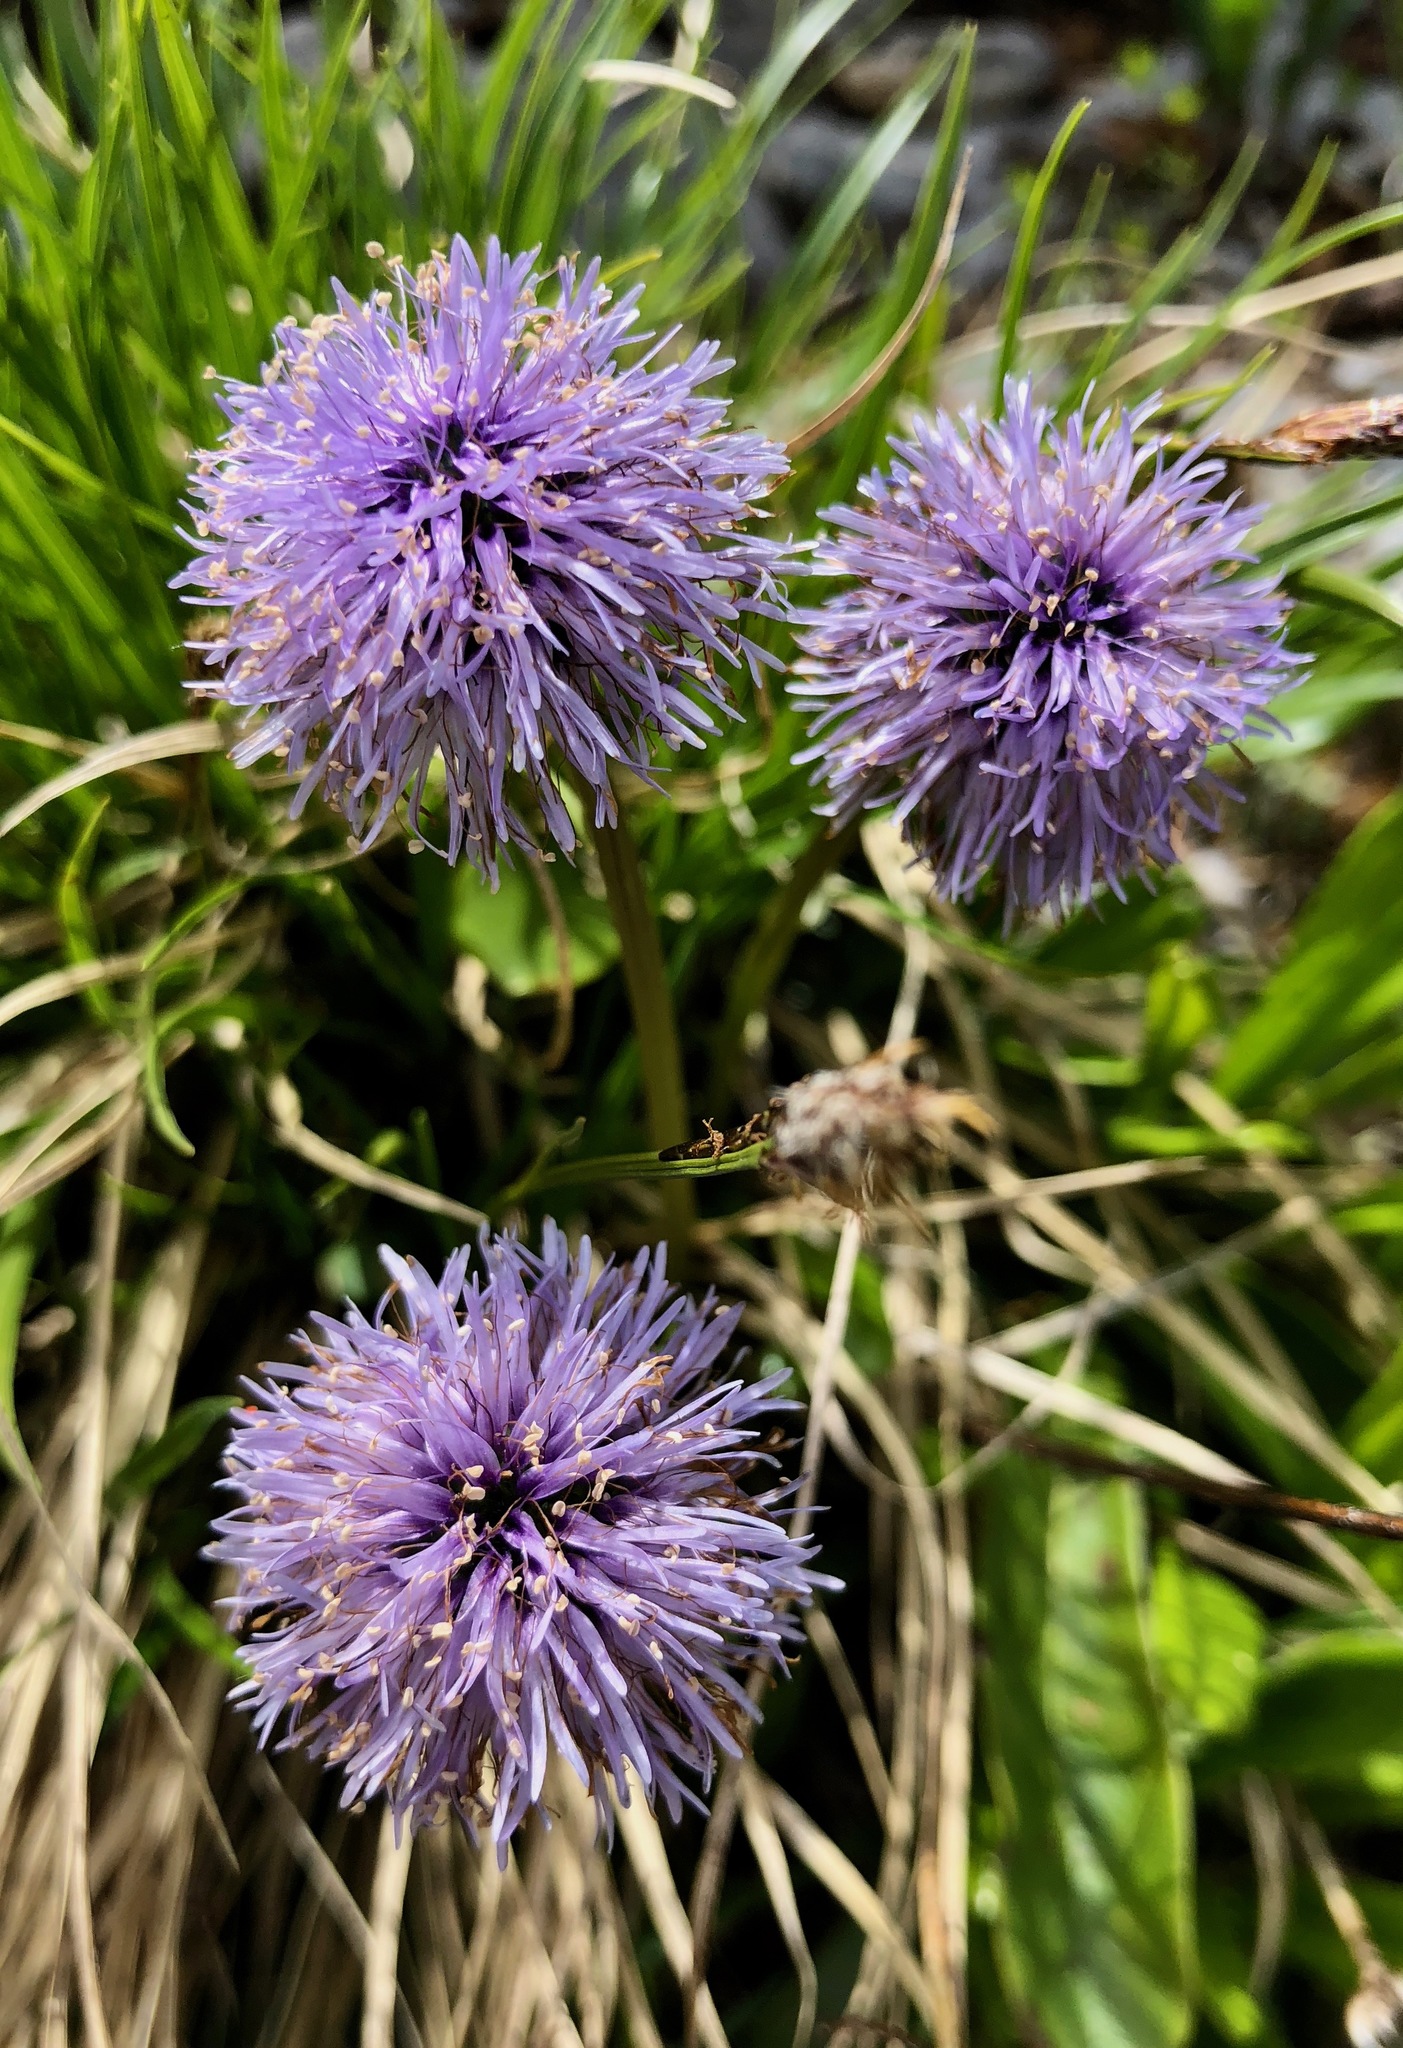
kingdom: Plantae
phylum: Tracheophyta
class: Magnoliopsida
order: Lamiales
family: Plantaginaceae
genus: Globularia
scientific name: Globularia nudicaulis
